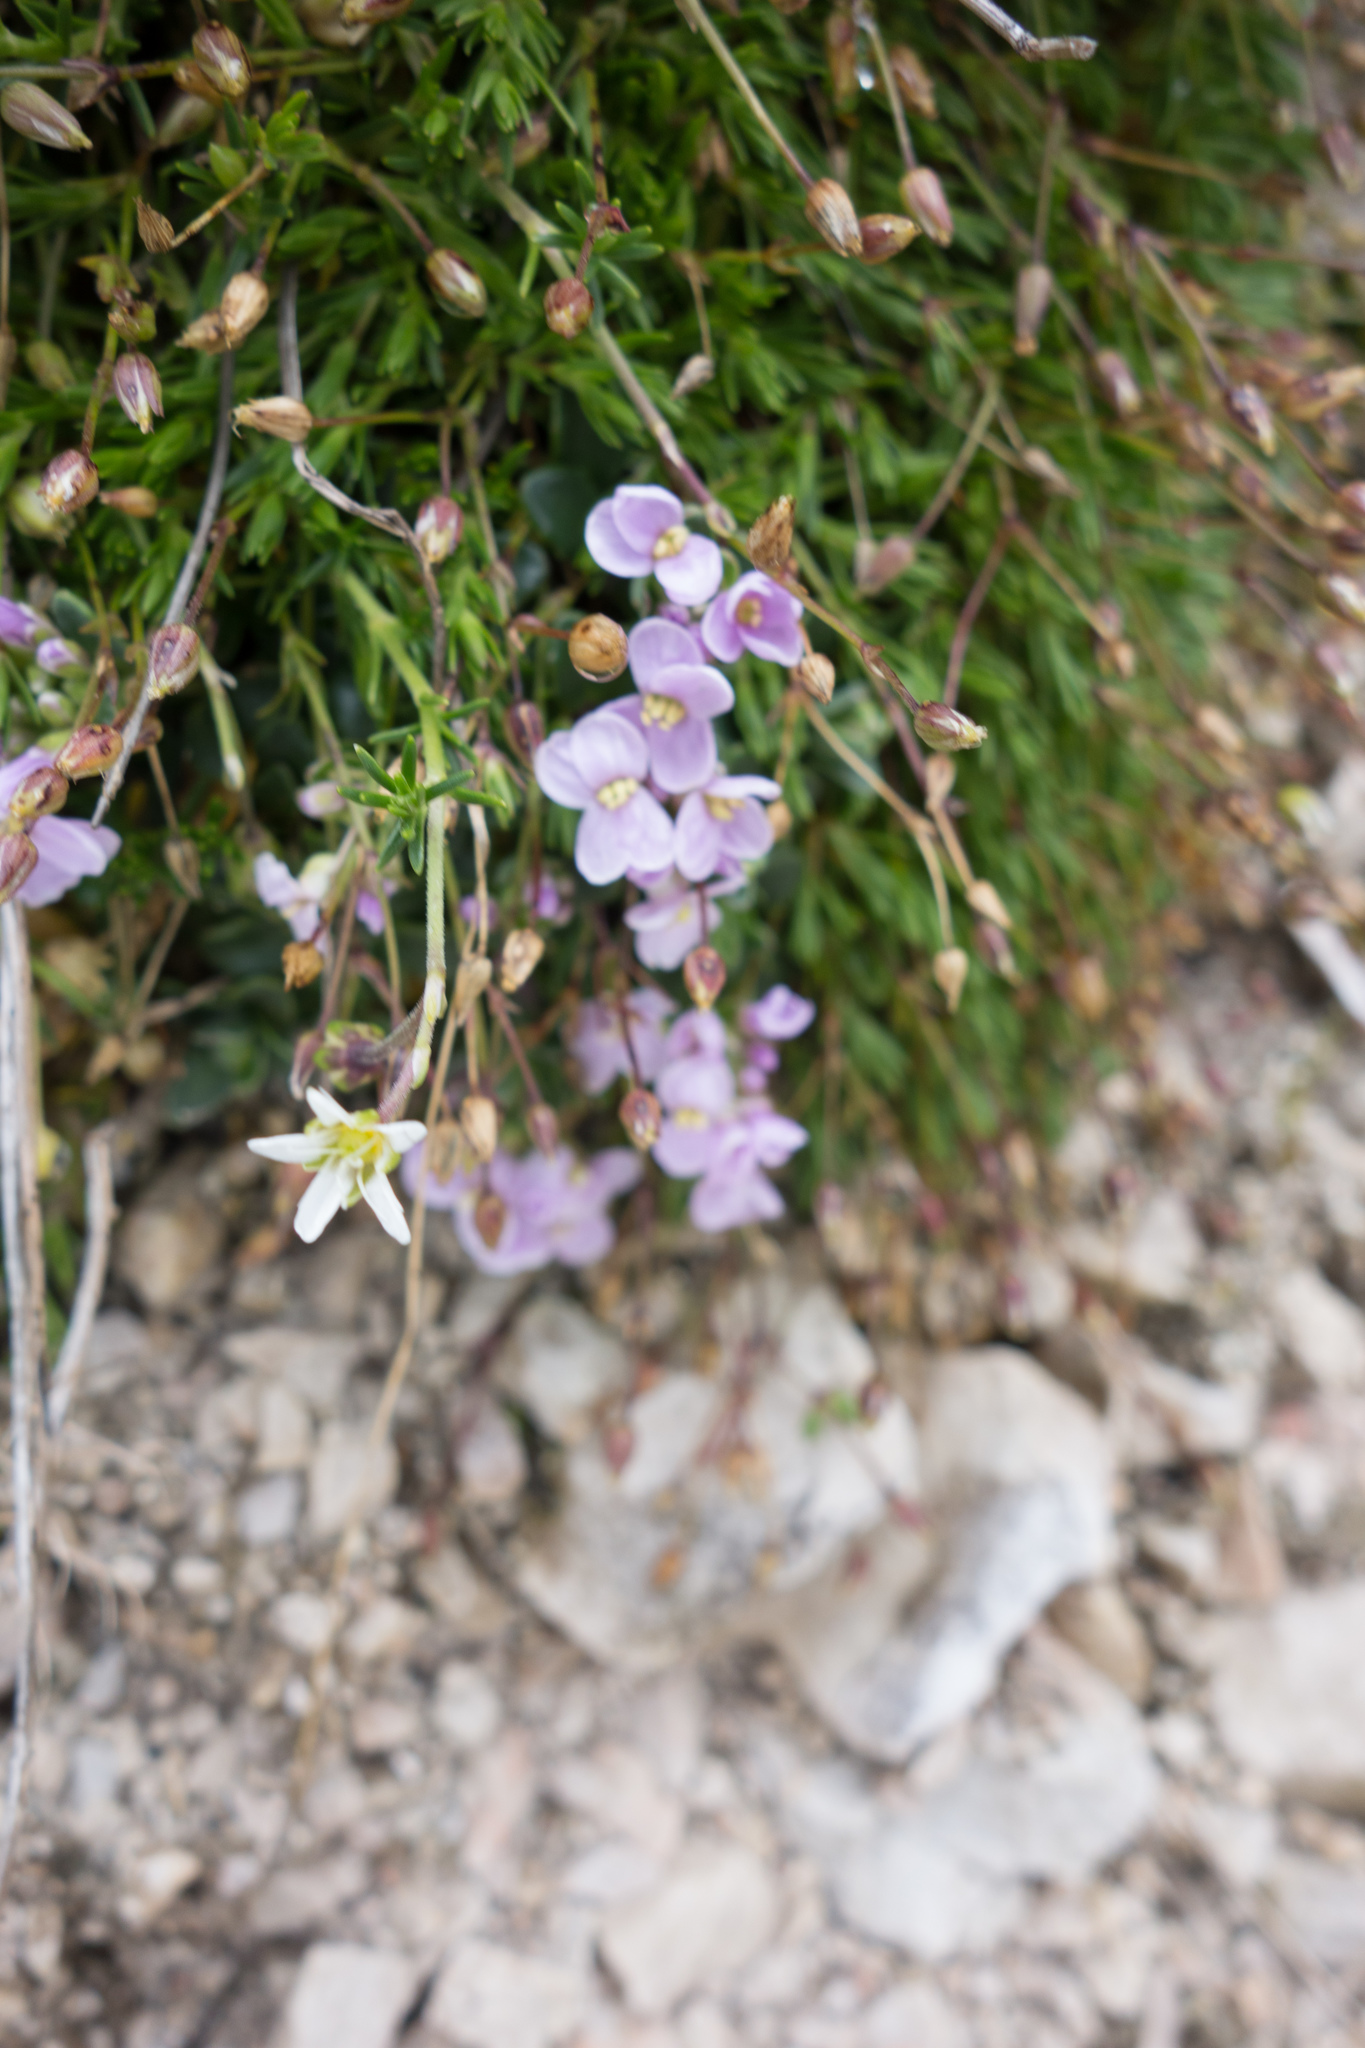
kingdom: Plantae
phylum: Tracheophyta
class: Magnoliopsida
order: Brassicales
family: Brassicaceae
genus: Noccaea
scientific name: Noccaea rotundifolia
